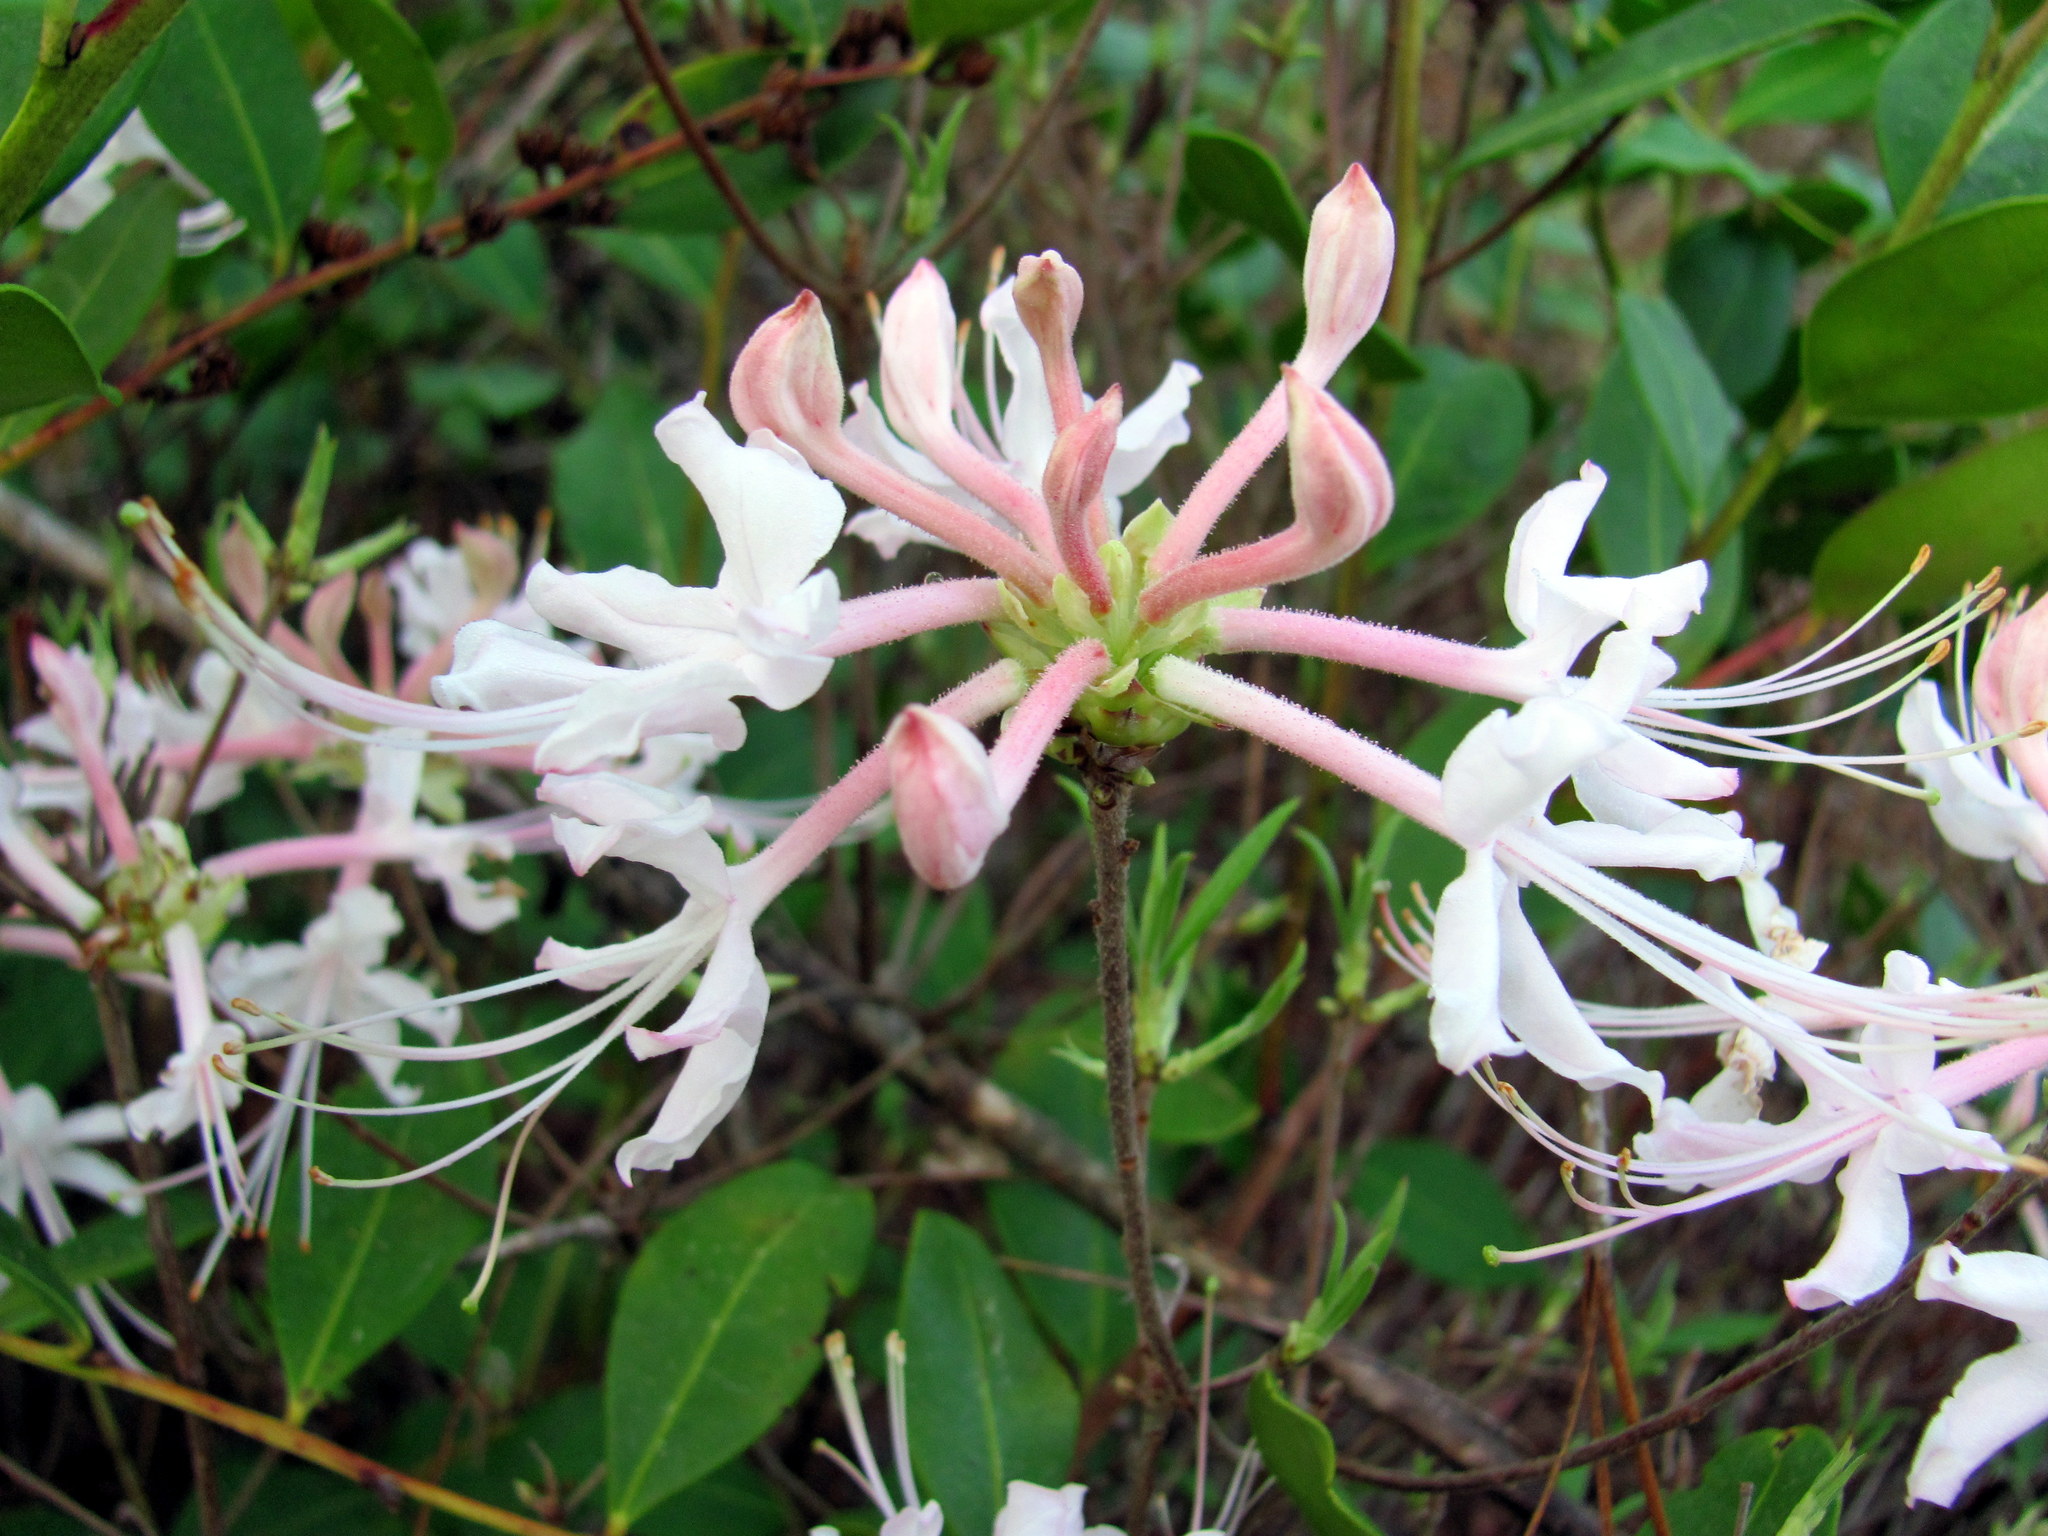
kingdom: Plantae
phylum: Tracheophyta
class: Magnoliopsida
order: Ericales
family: Ericaceae
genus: Rhododendron
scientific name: Rhododendron canescens
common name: Mountain azalea
